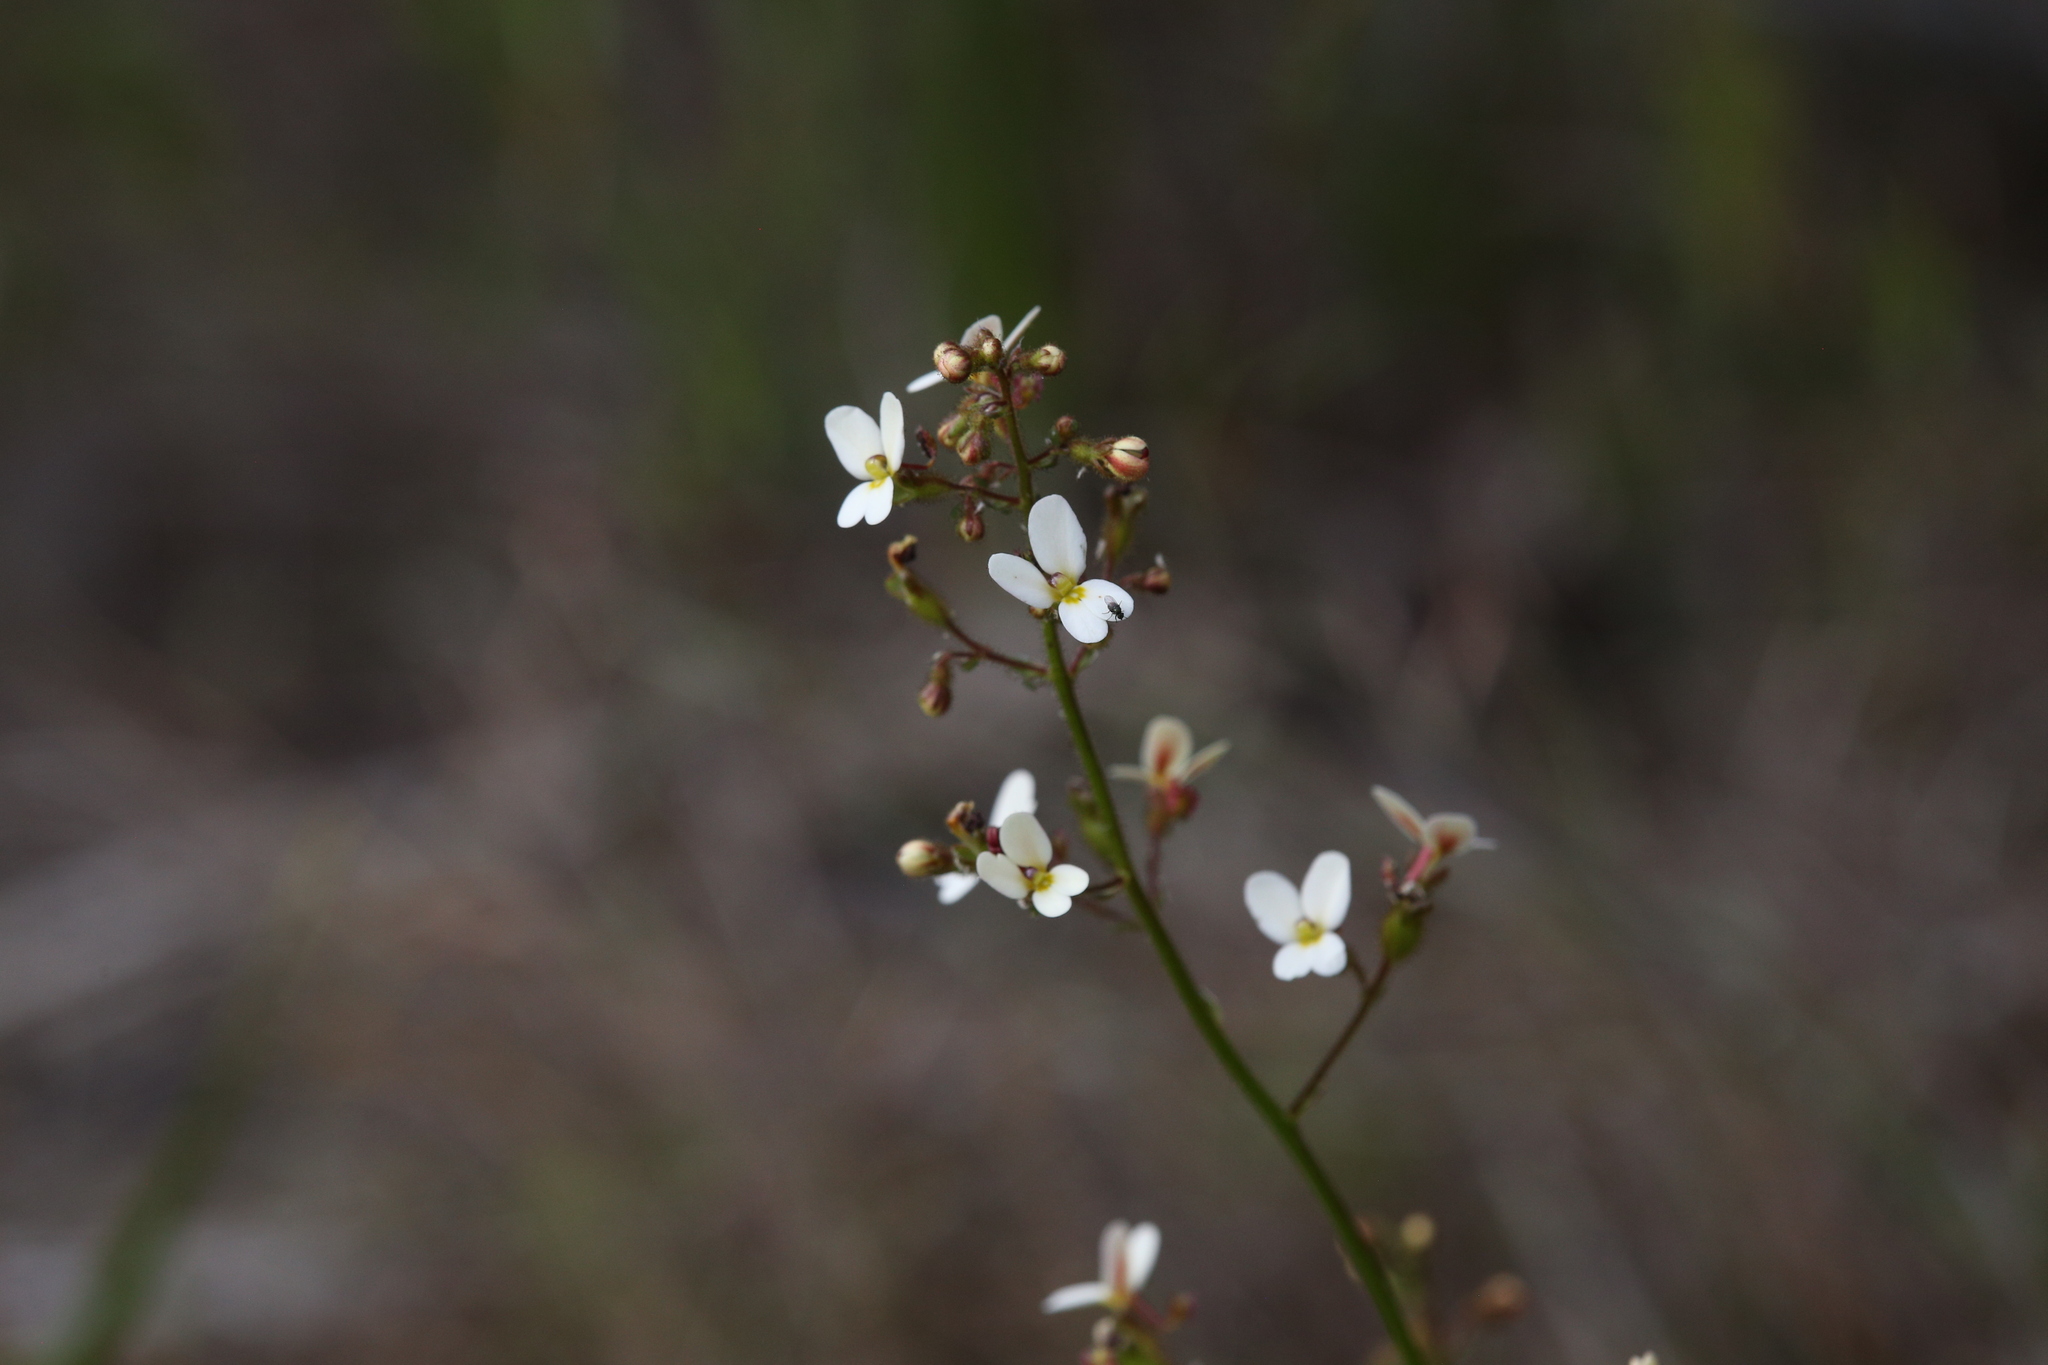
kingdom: Plantae
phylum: Tracheophyta
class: Magnoliopsida
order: Asterales
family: Stylidiaceae
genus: Stylidium
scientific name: Stylidium piliferum
